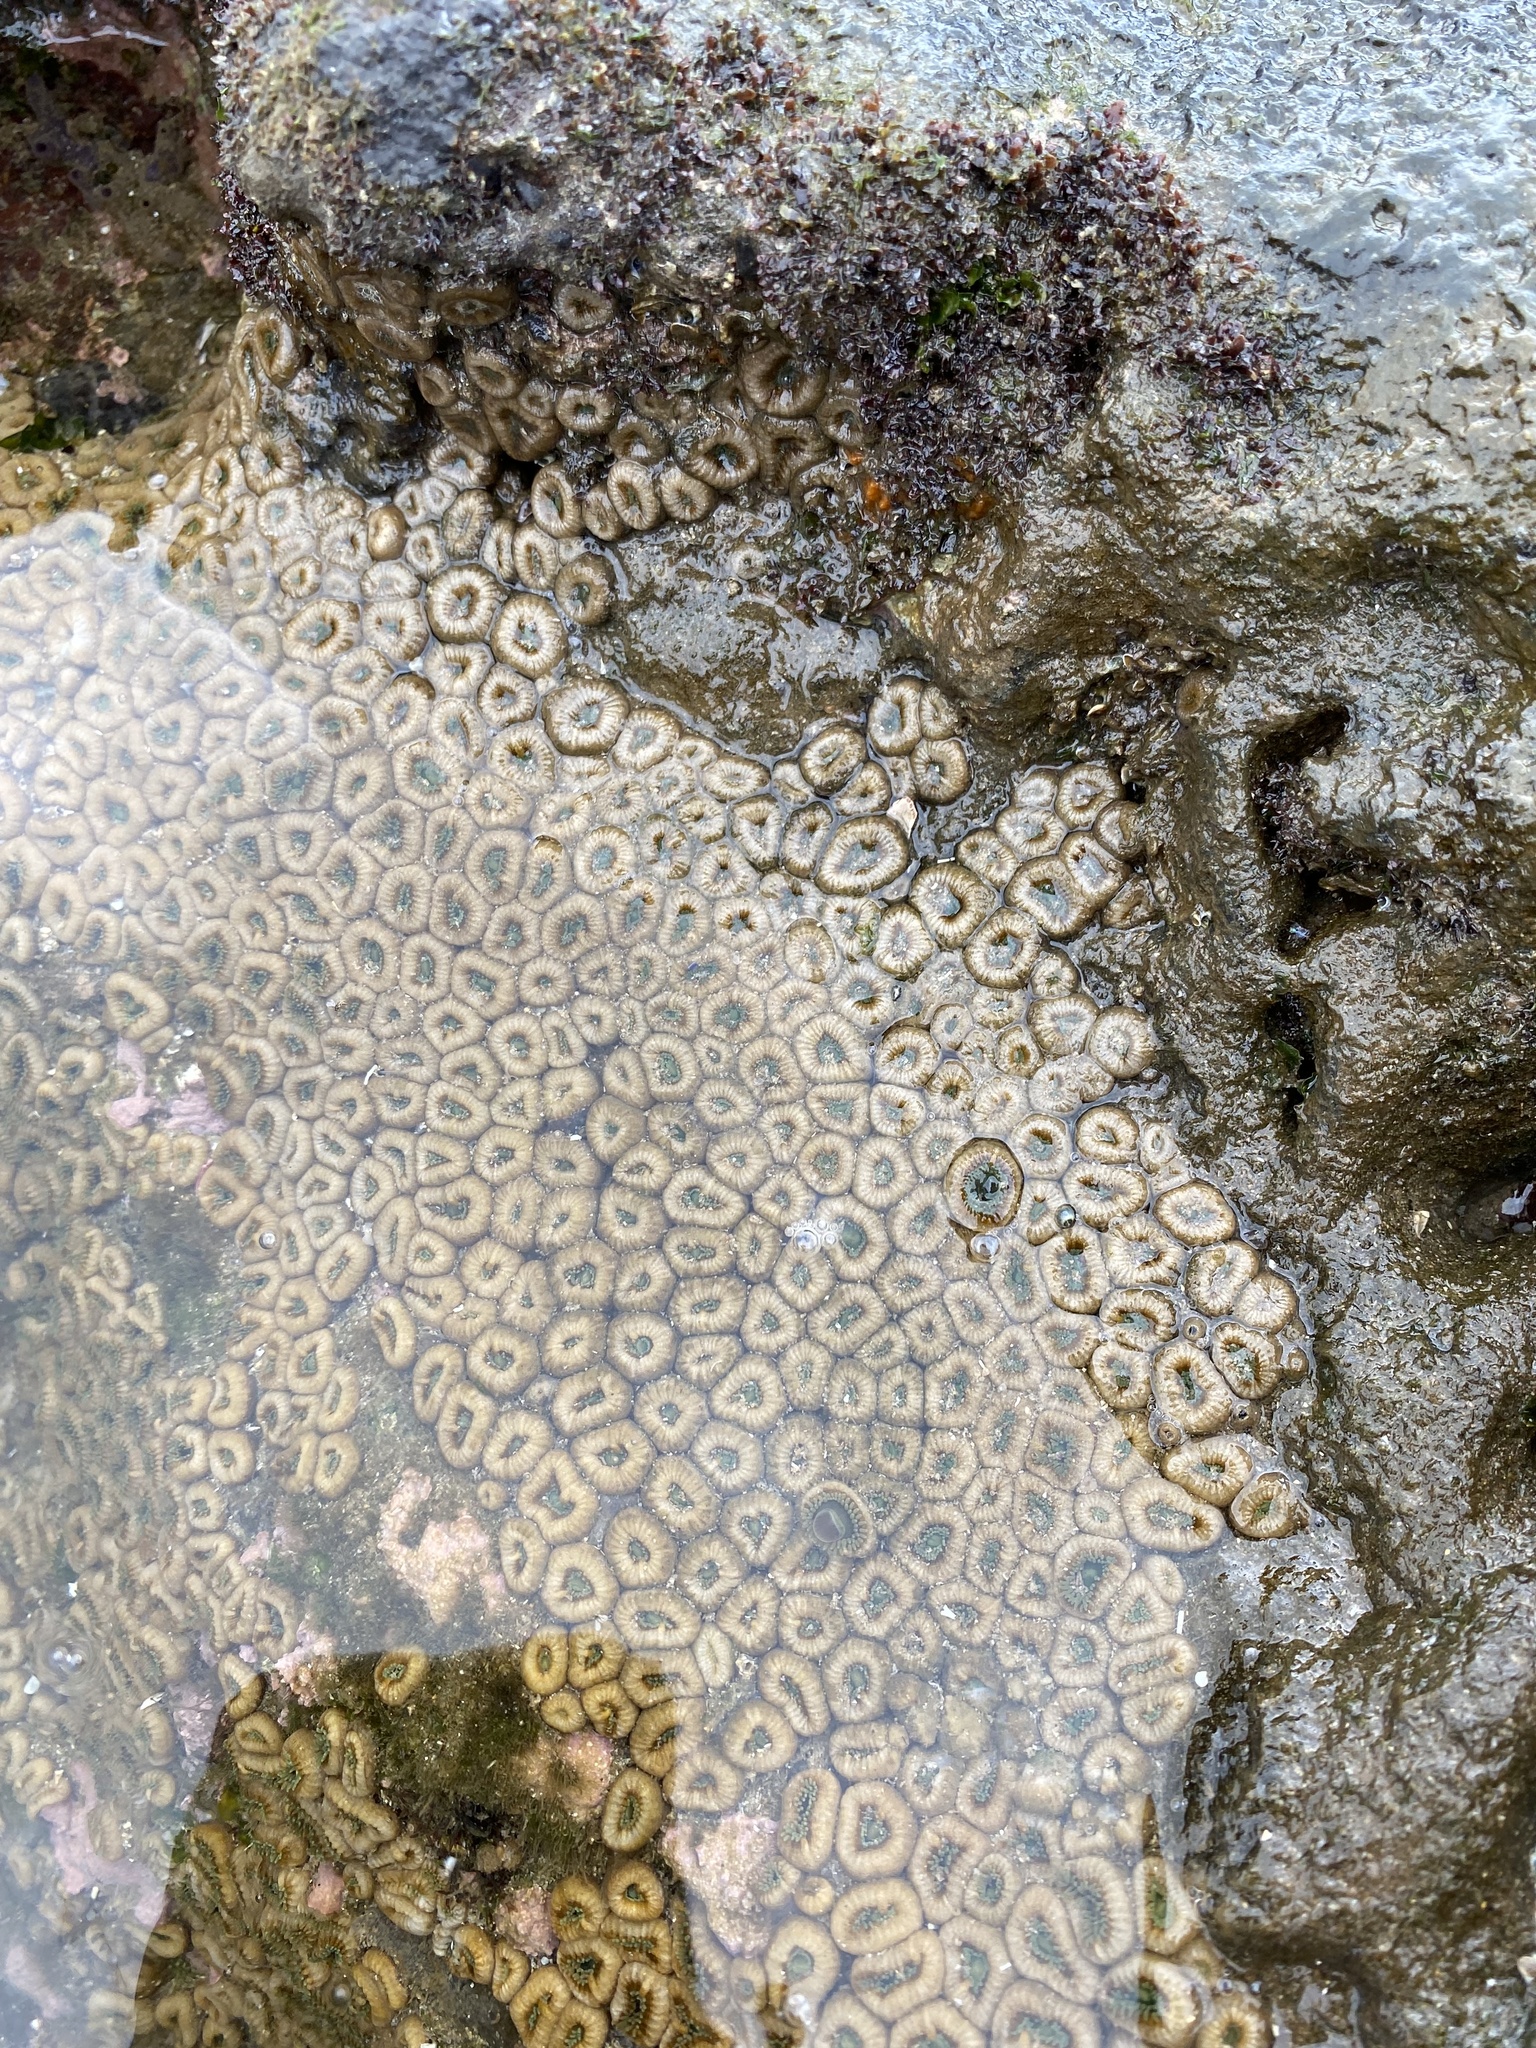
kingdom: Animalia
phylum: Cnidaria
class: Anthozoa
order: Zoantharia
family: Sphenopidae
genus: Palythoa
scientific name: Palythoa mutuki
